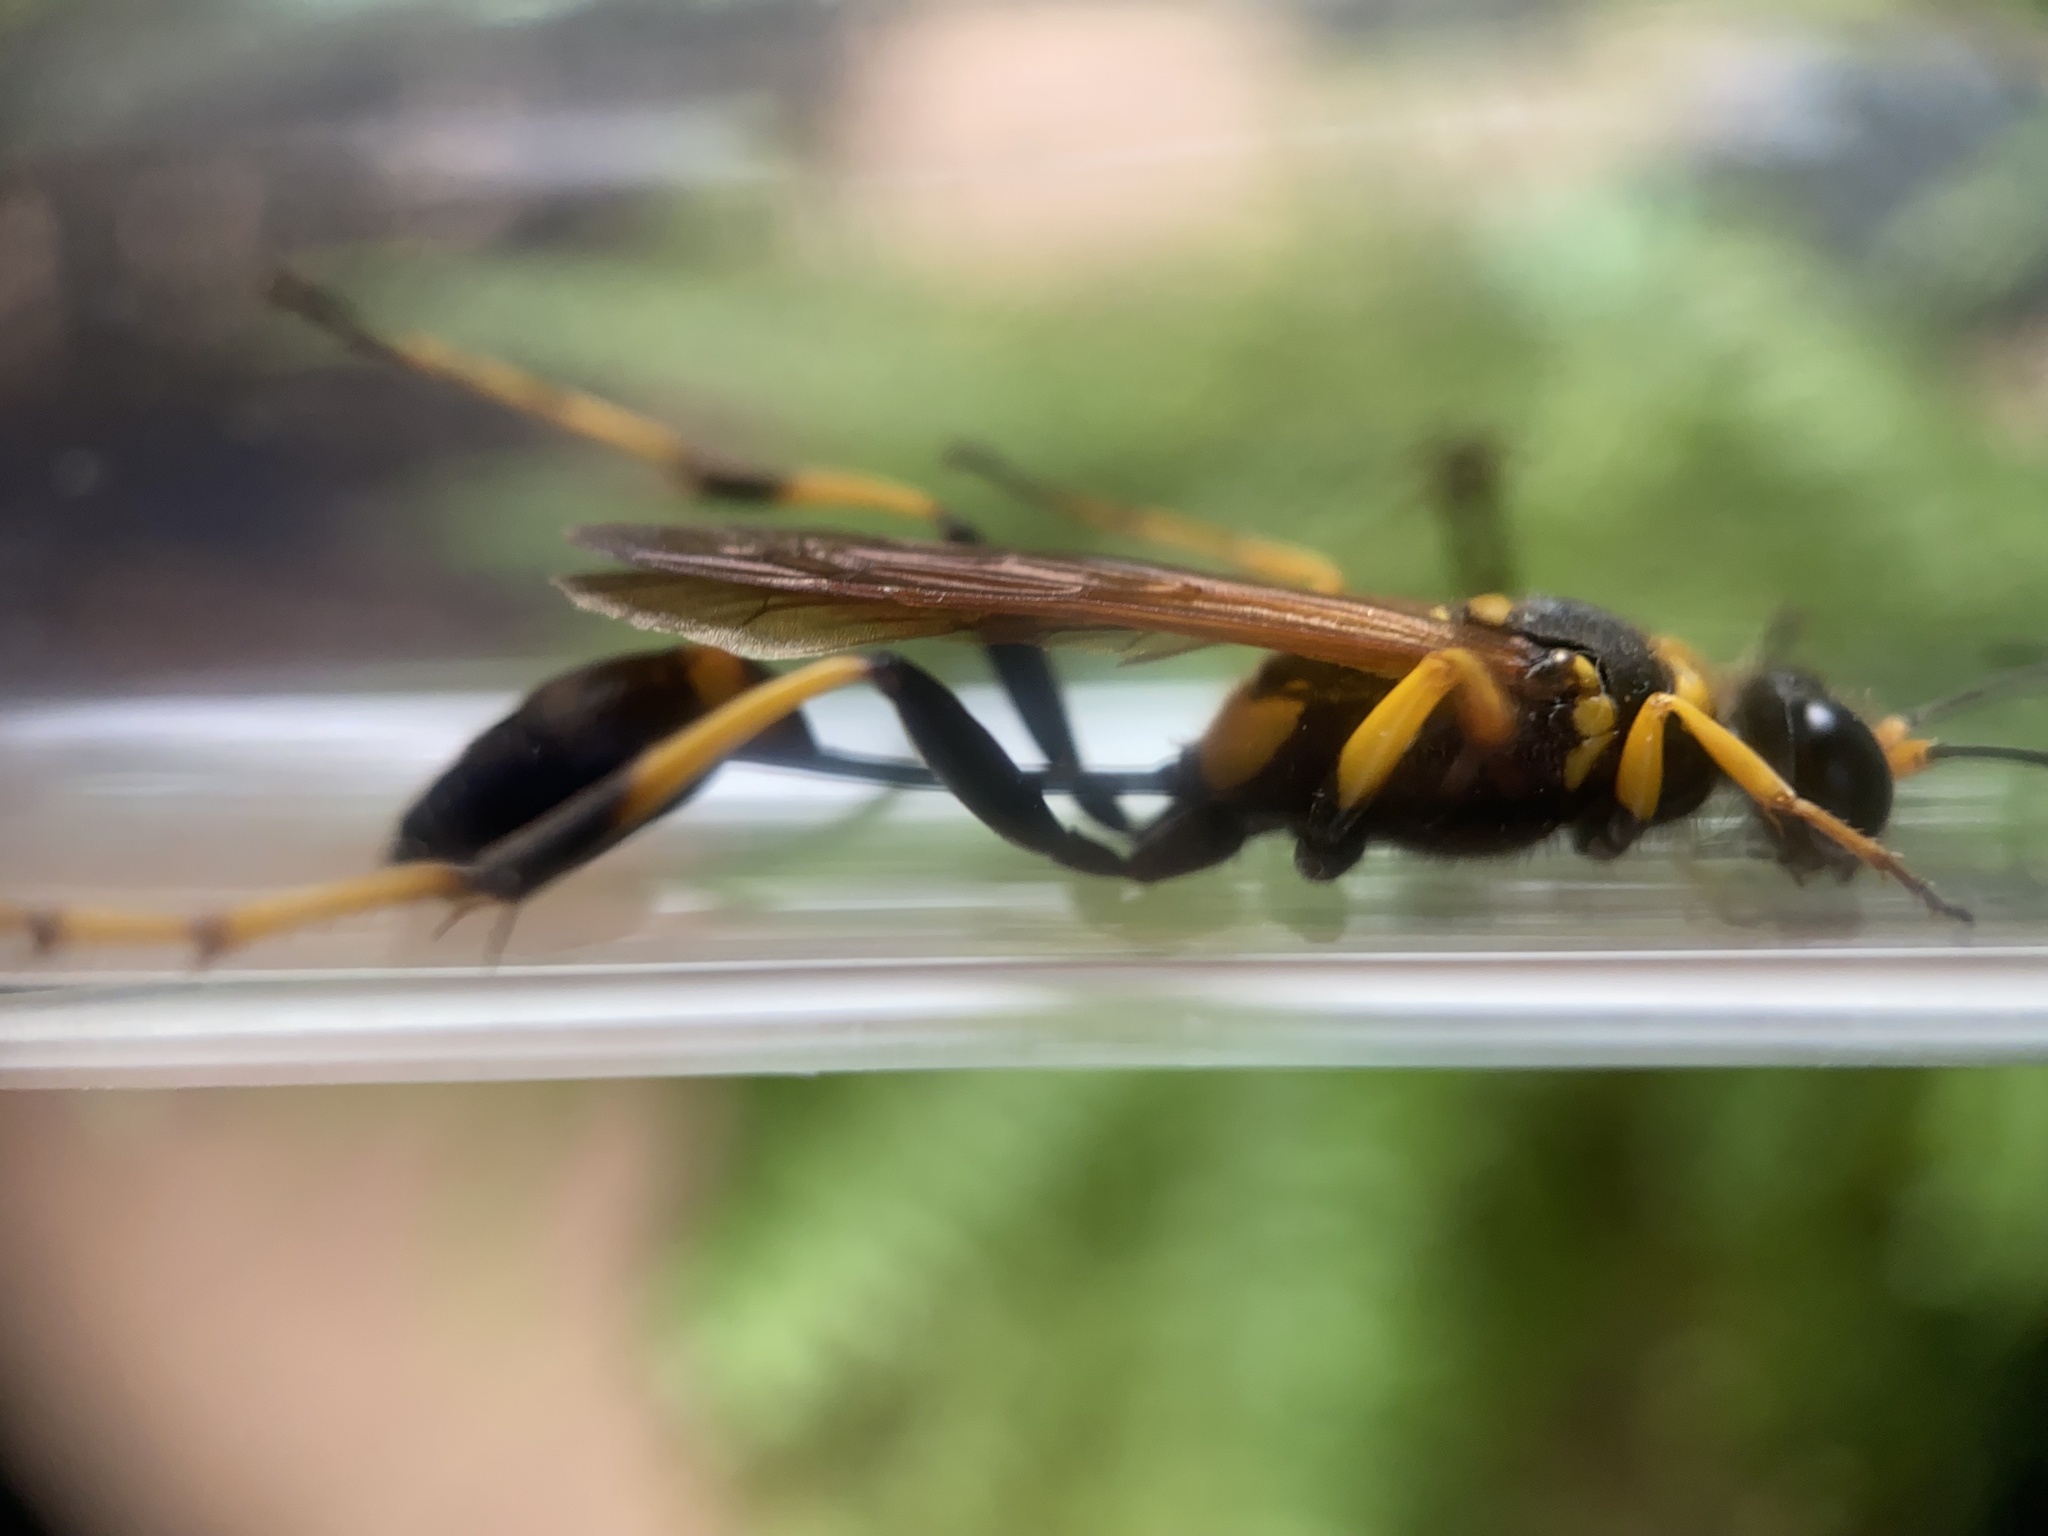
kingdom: Animalia
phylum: Arthropoda
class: Insecta
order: Hymenoptera
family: Sphecidae
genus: Sceliphron
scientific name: Sceliphron caementarium
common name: Mud dauber
